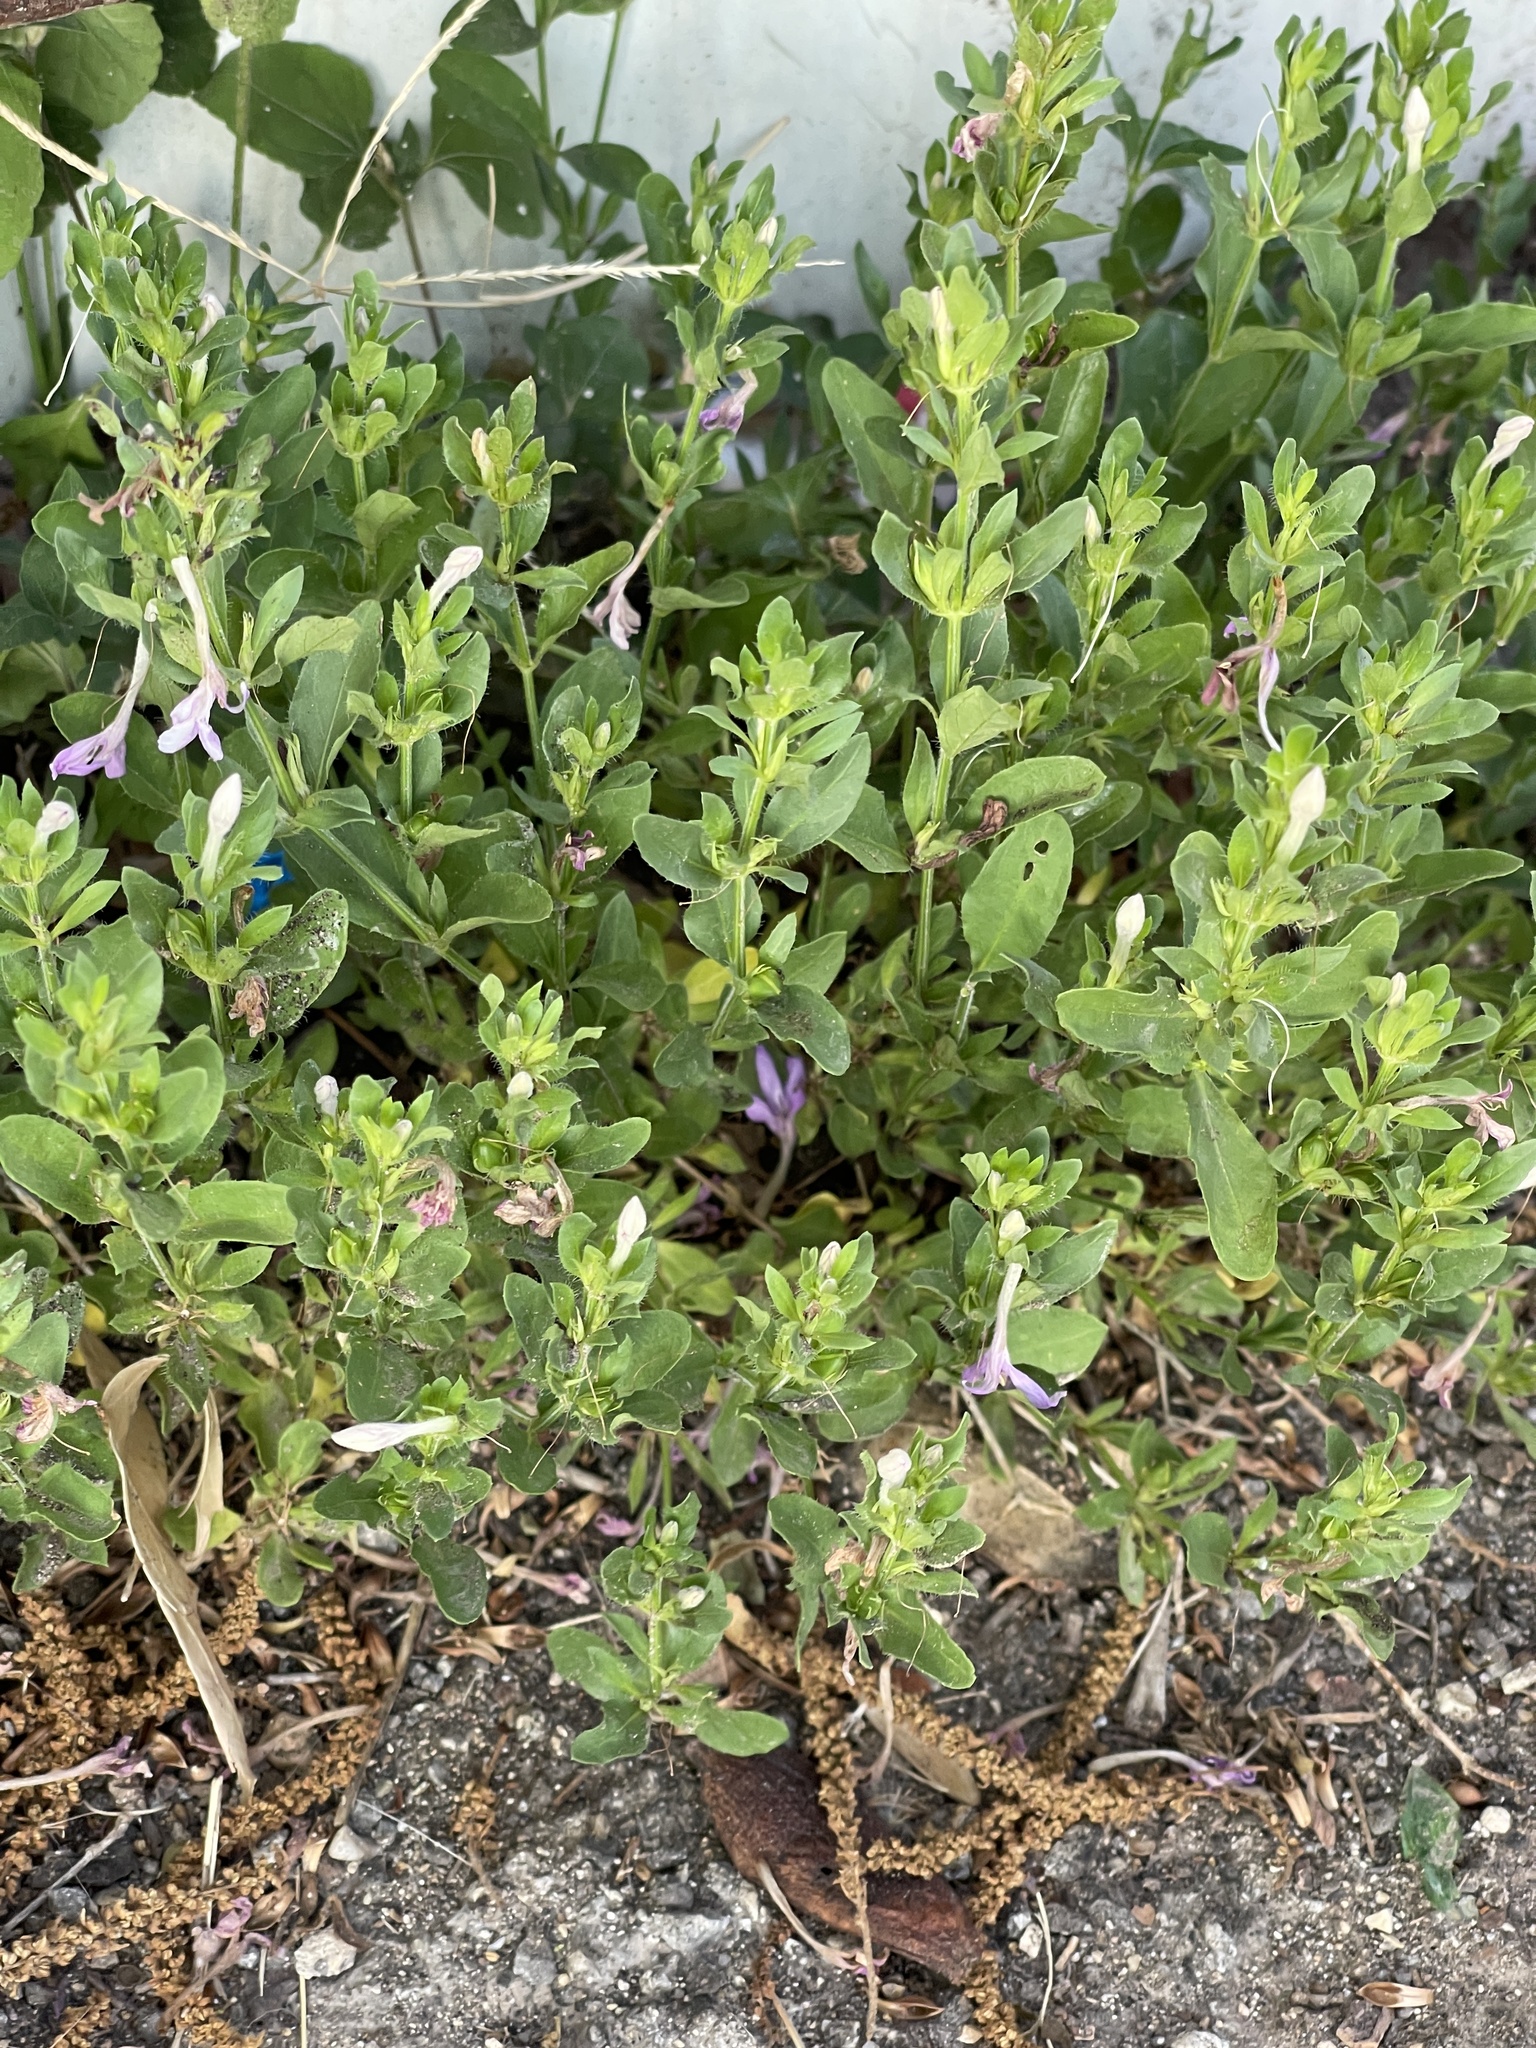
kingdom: Plantae
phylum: Tracheophyta
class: Magnoliopsida
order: Lamiales
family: Acanthaceae
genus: Justicia
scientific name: Justicia pilosella
